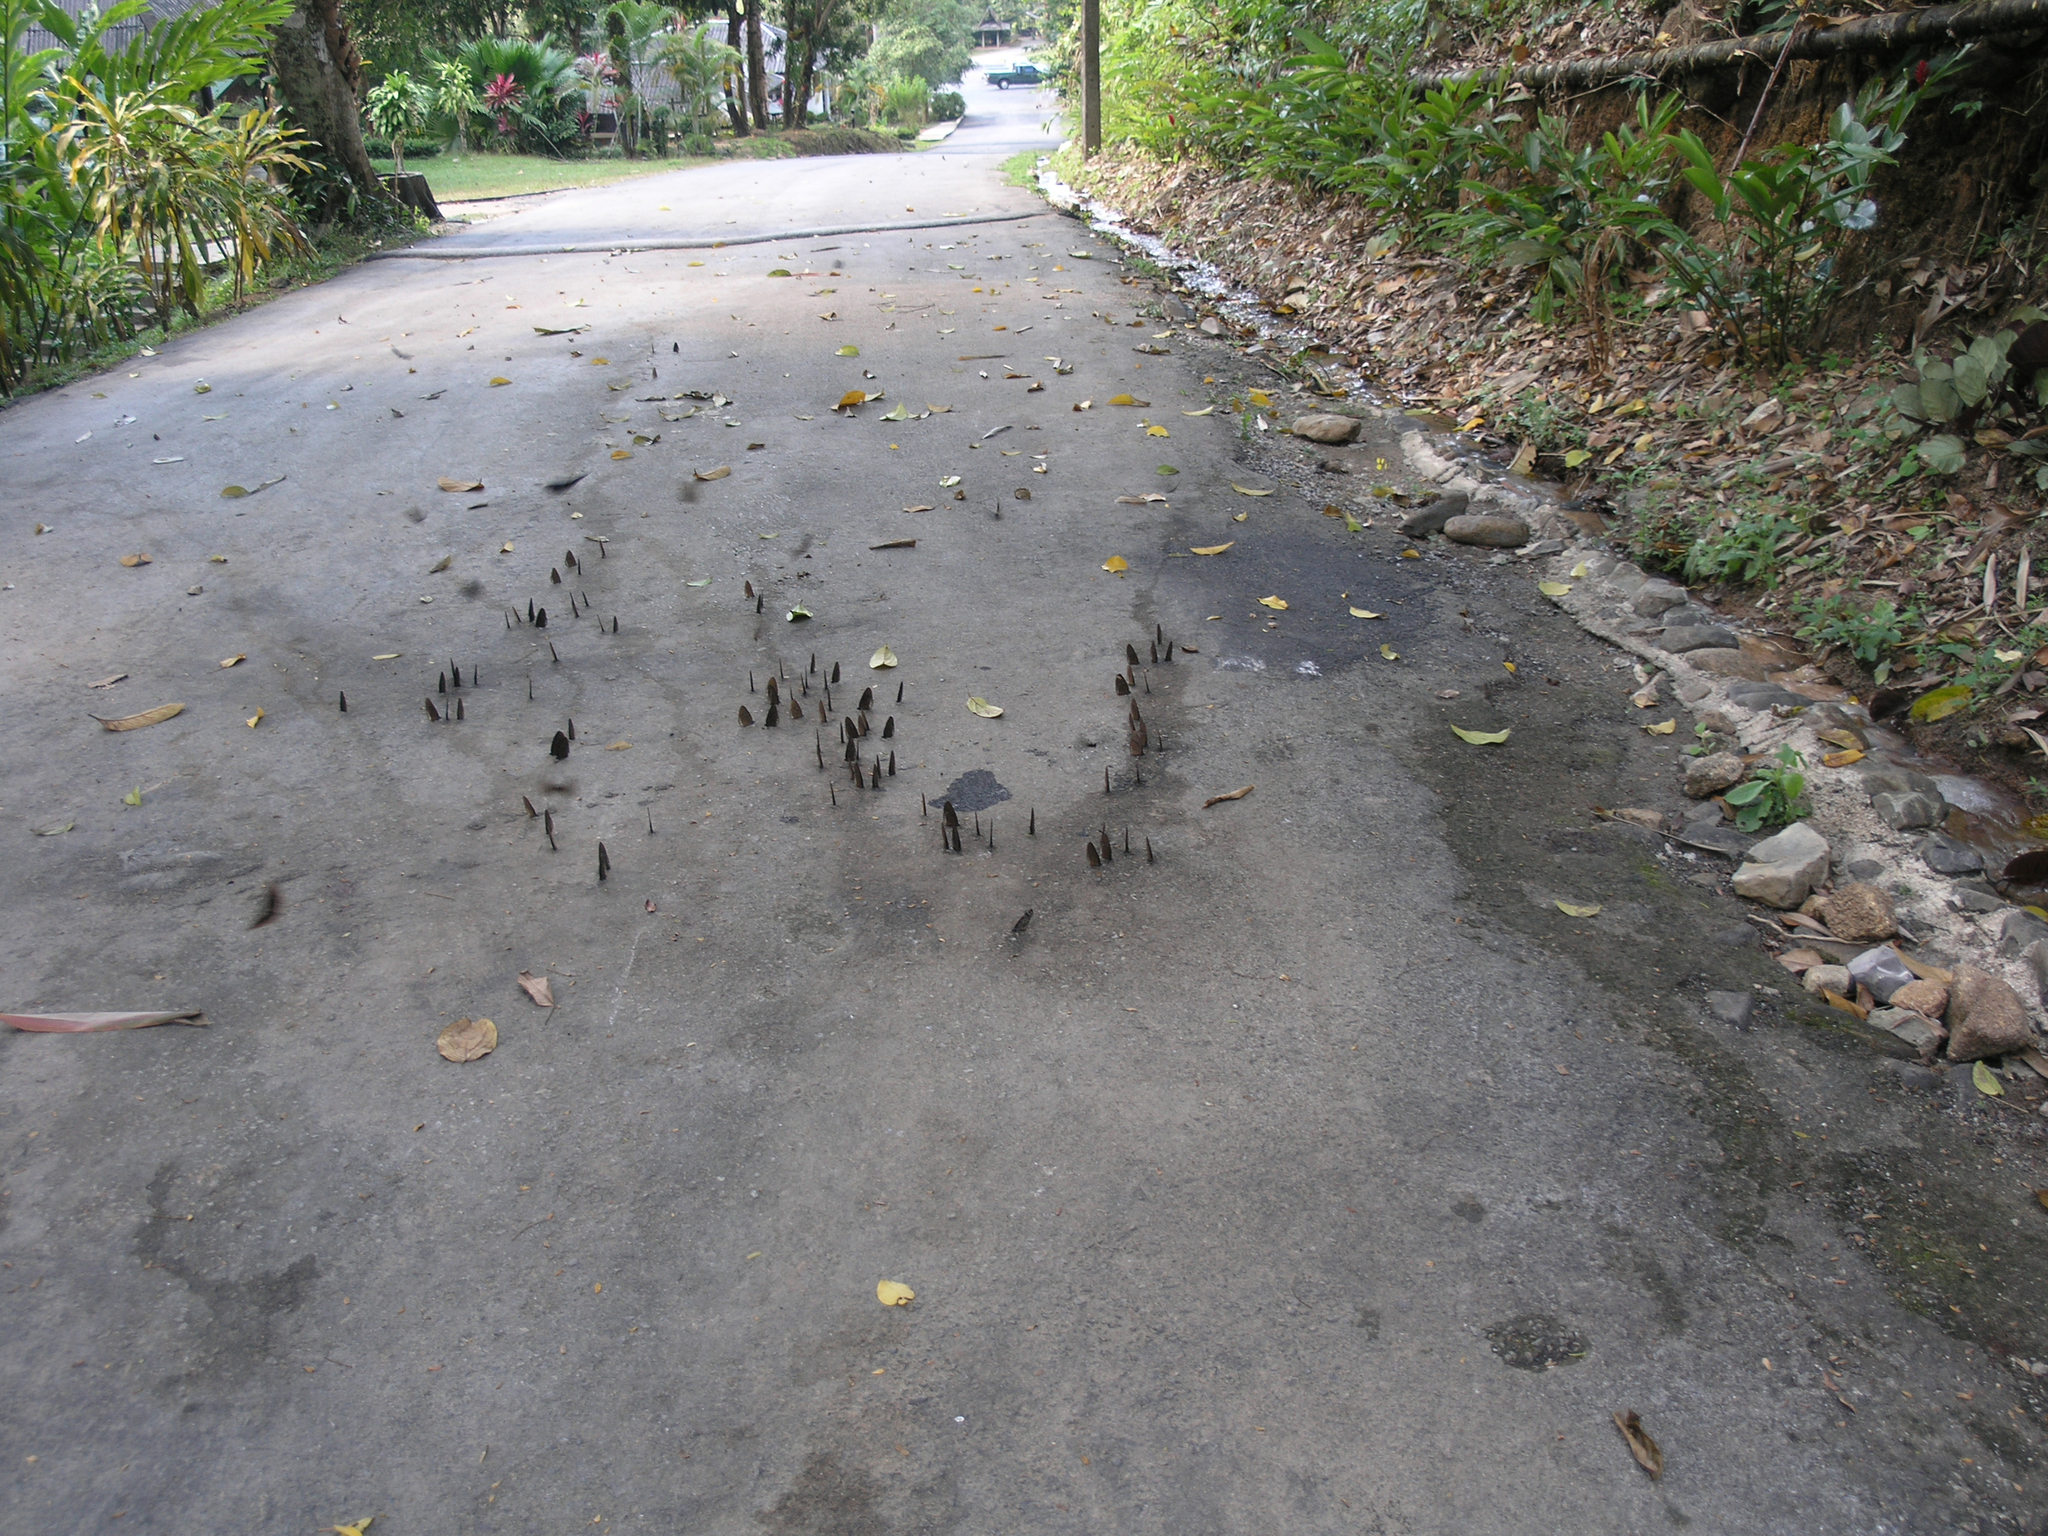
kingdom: Animalia
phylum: Arthropoda
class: Insecta
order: Lepidoptera
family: Nymphalidae
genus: Euploea
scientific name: Euploea sylvester
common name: Double-branded crow butterfly
